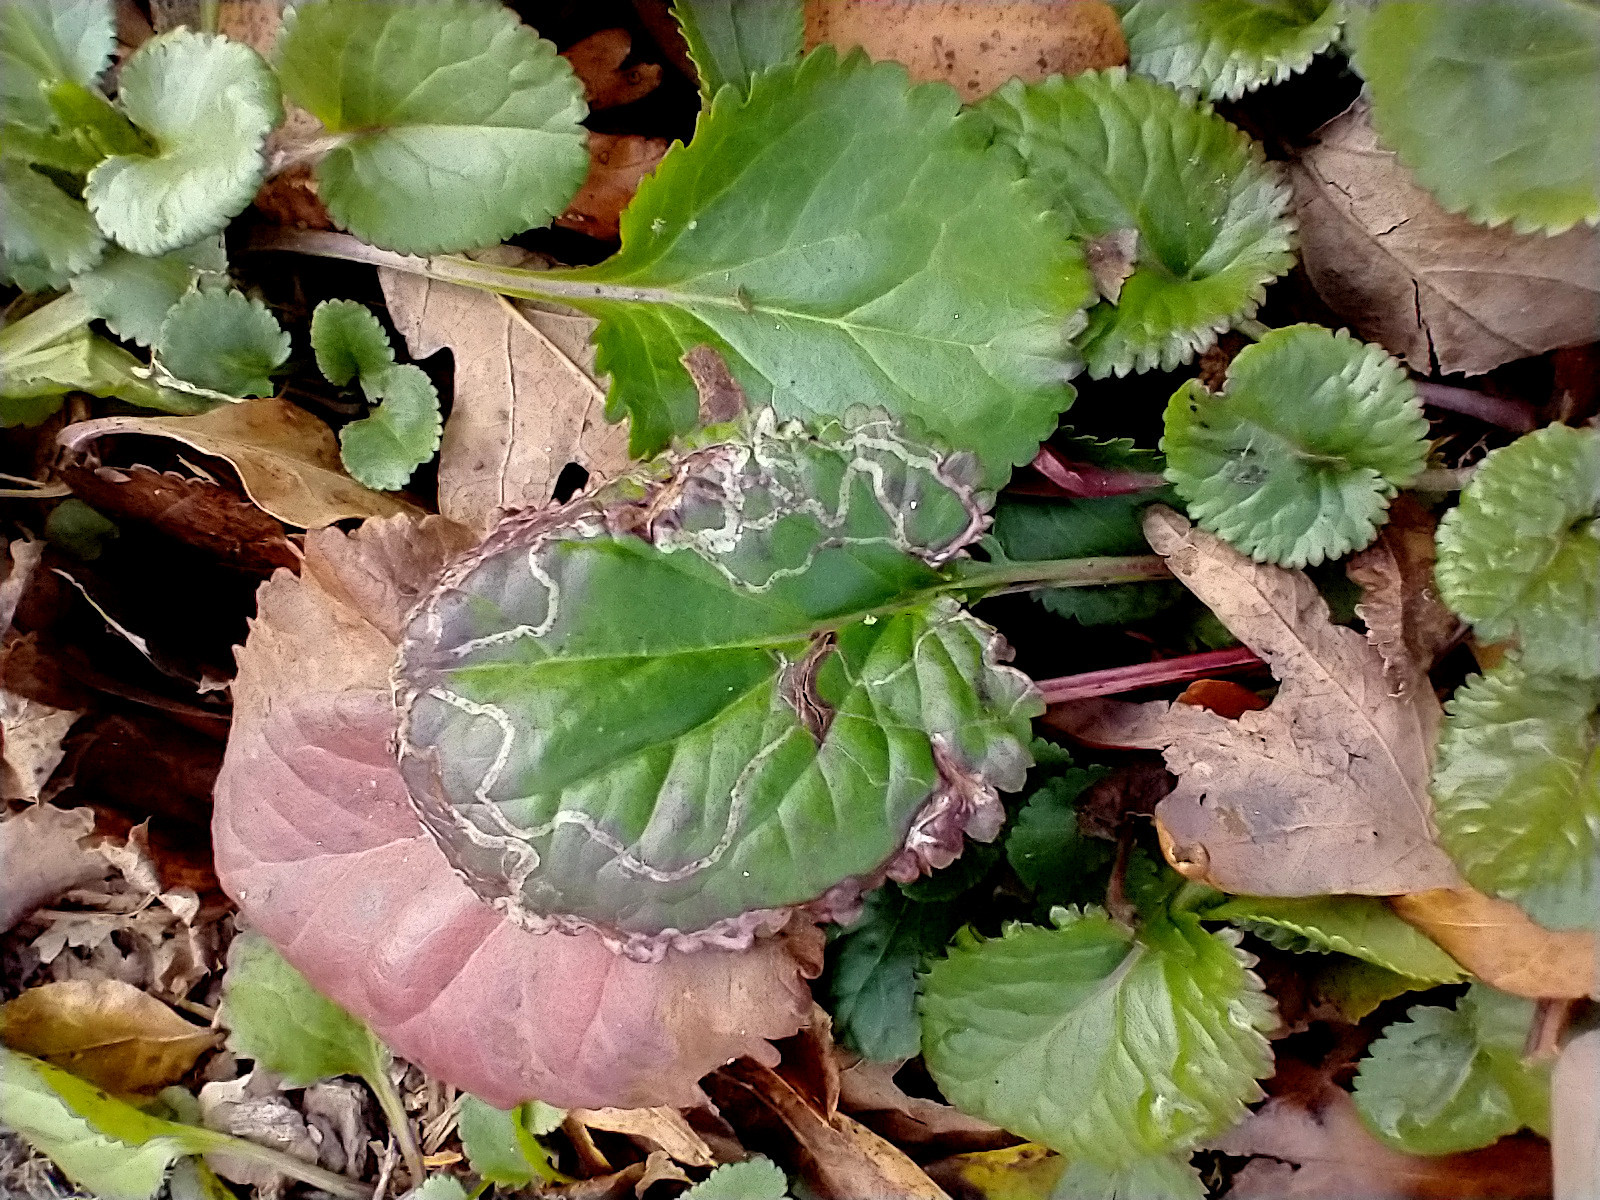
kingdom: Animalia
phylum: Arthropoda
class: Insecta
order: Lepidoptera
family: Gracillariidae
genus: Phyllocnistis
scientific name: Phyllocnistis insignis
